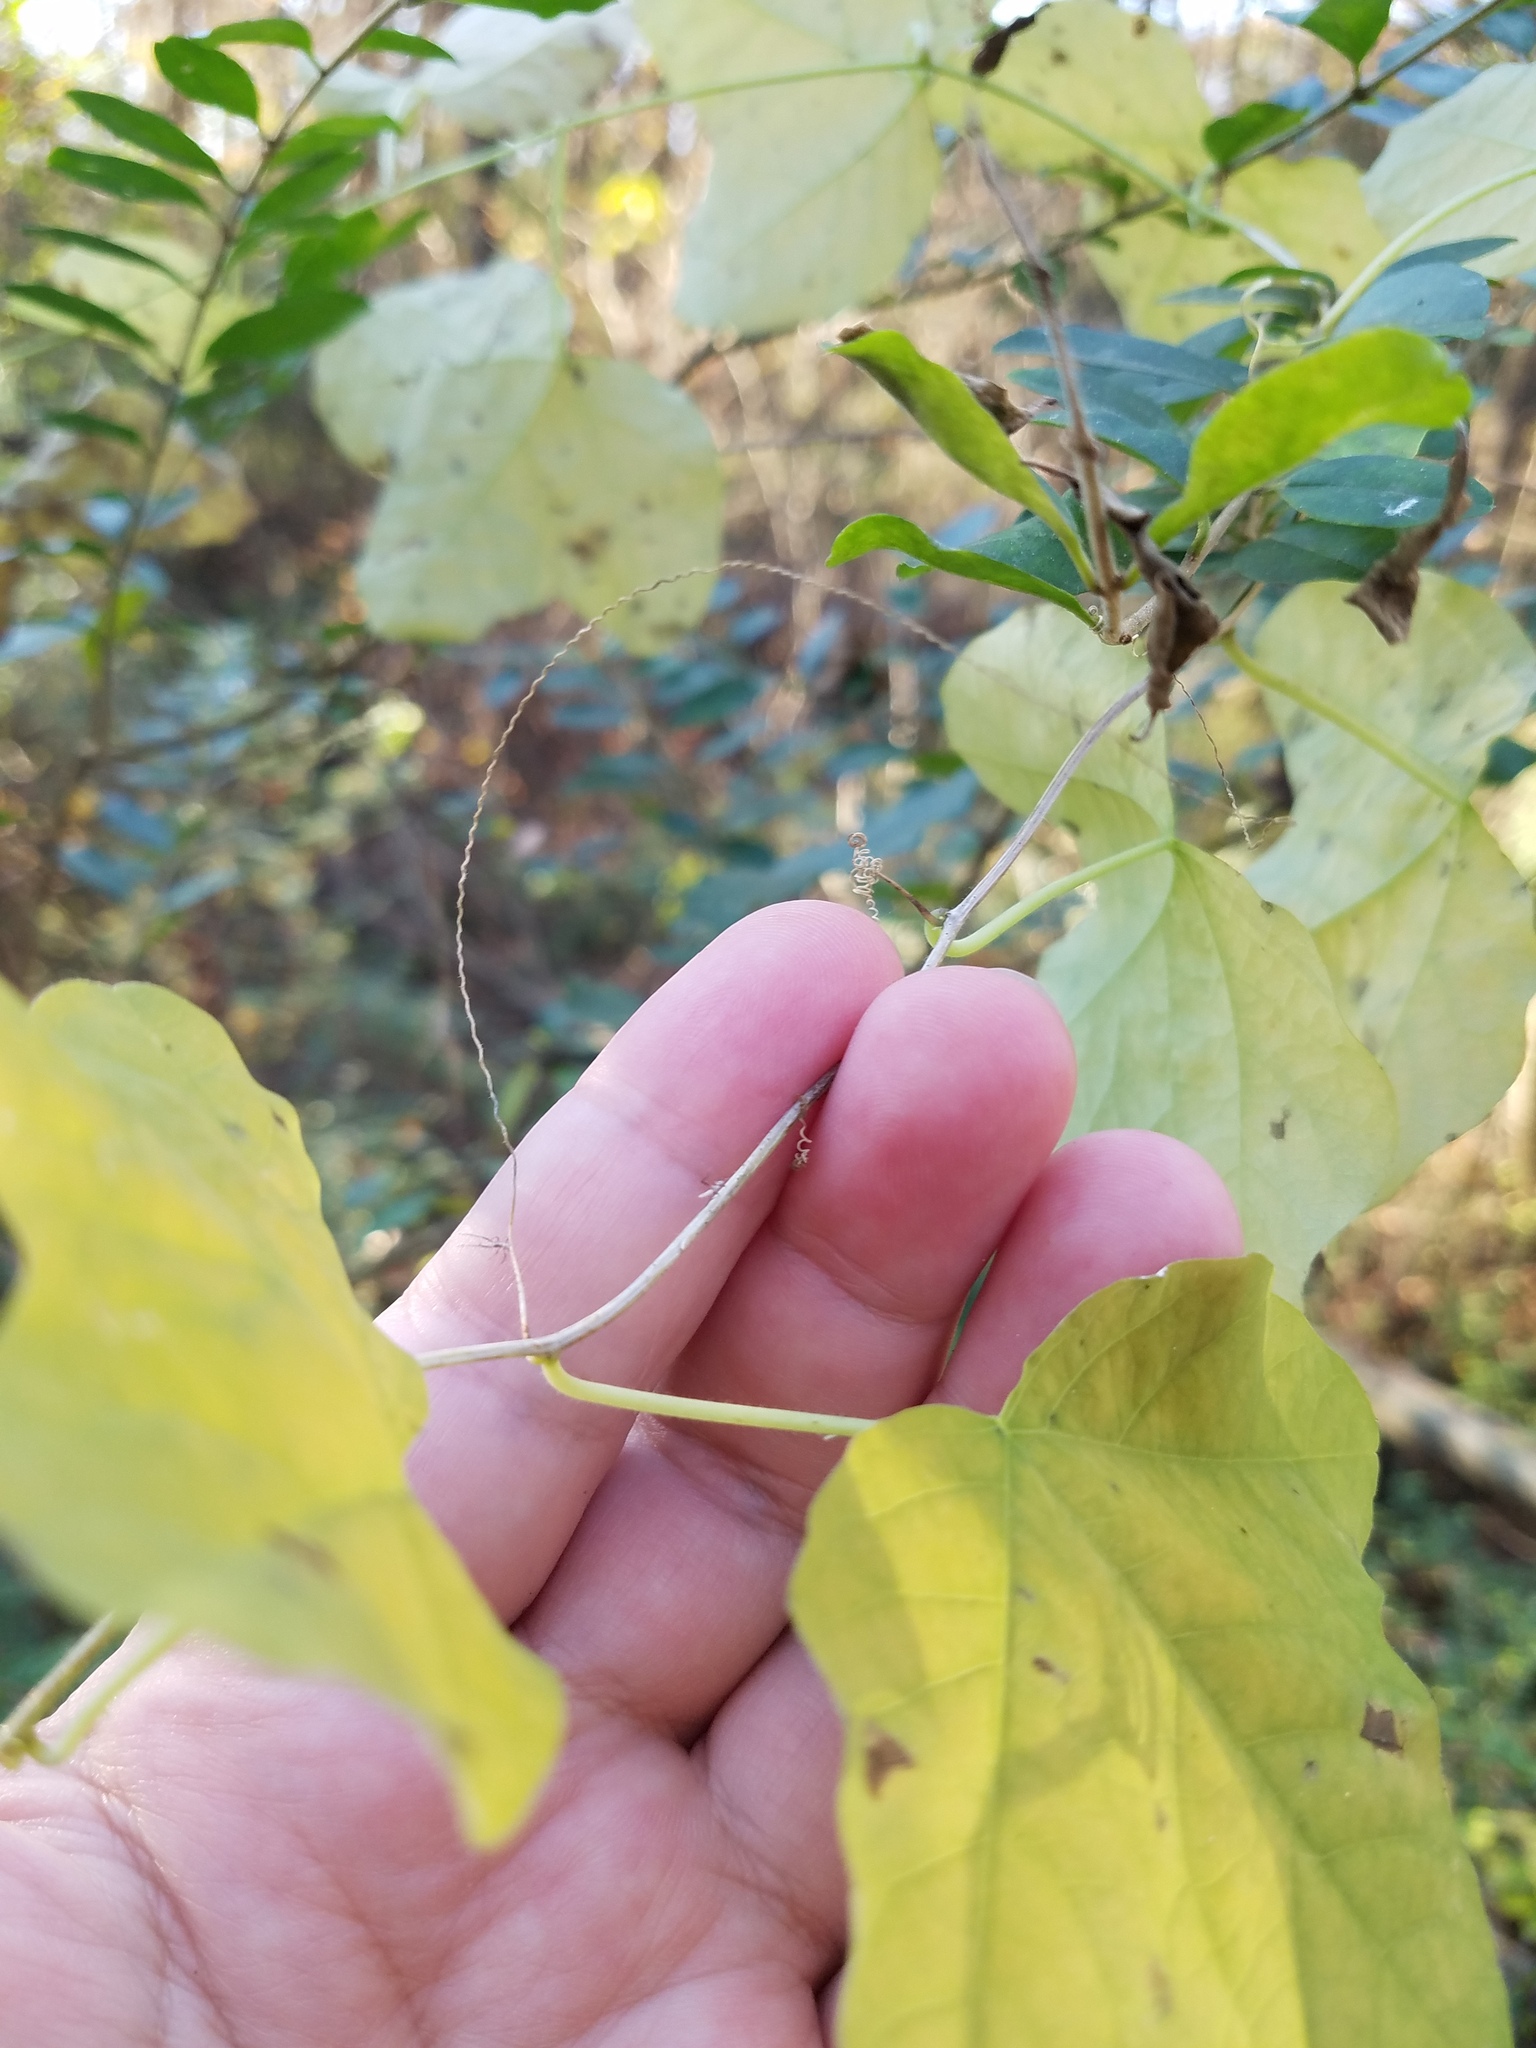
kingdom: Plantae
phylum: Tracheophyta
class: Magnoliopsida
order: Malpighiales
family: Passifloraceae
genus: Passiflora
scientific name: Passiflora lutea
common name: Yellow passionflower
